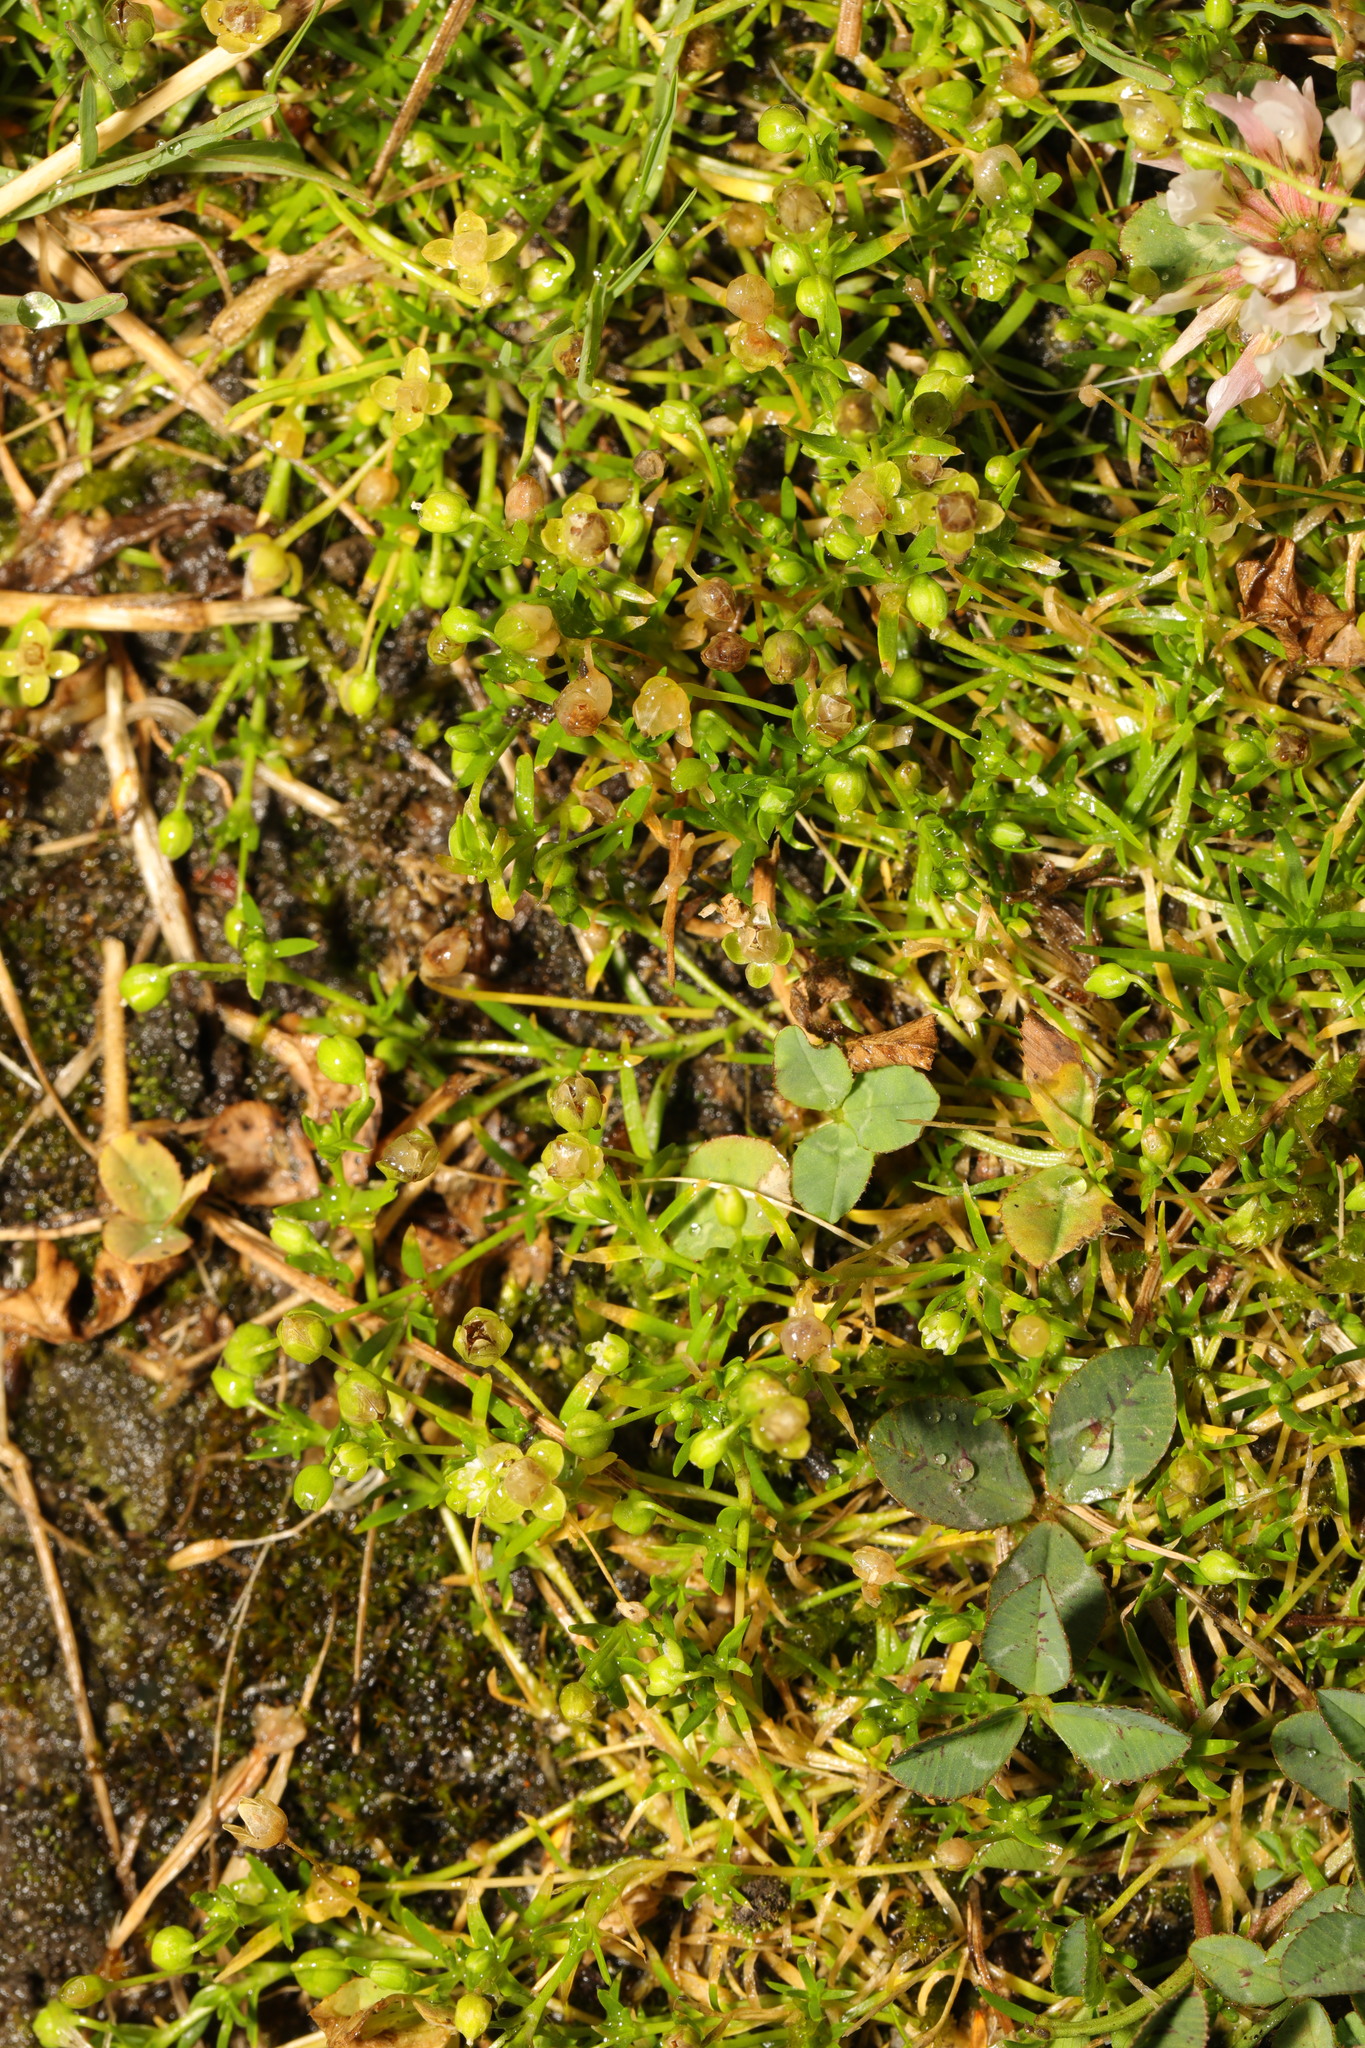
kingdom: Plantae
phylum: Tracheophyta
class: Magnoliopsida
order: Caryophyllales
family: Caryophyllaceae
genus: Sagina
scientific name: Sagina procumbens
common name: Procumbent pearlwort
